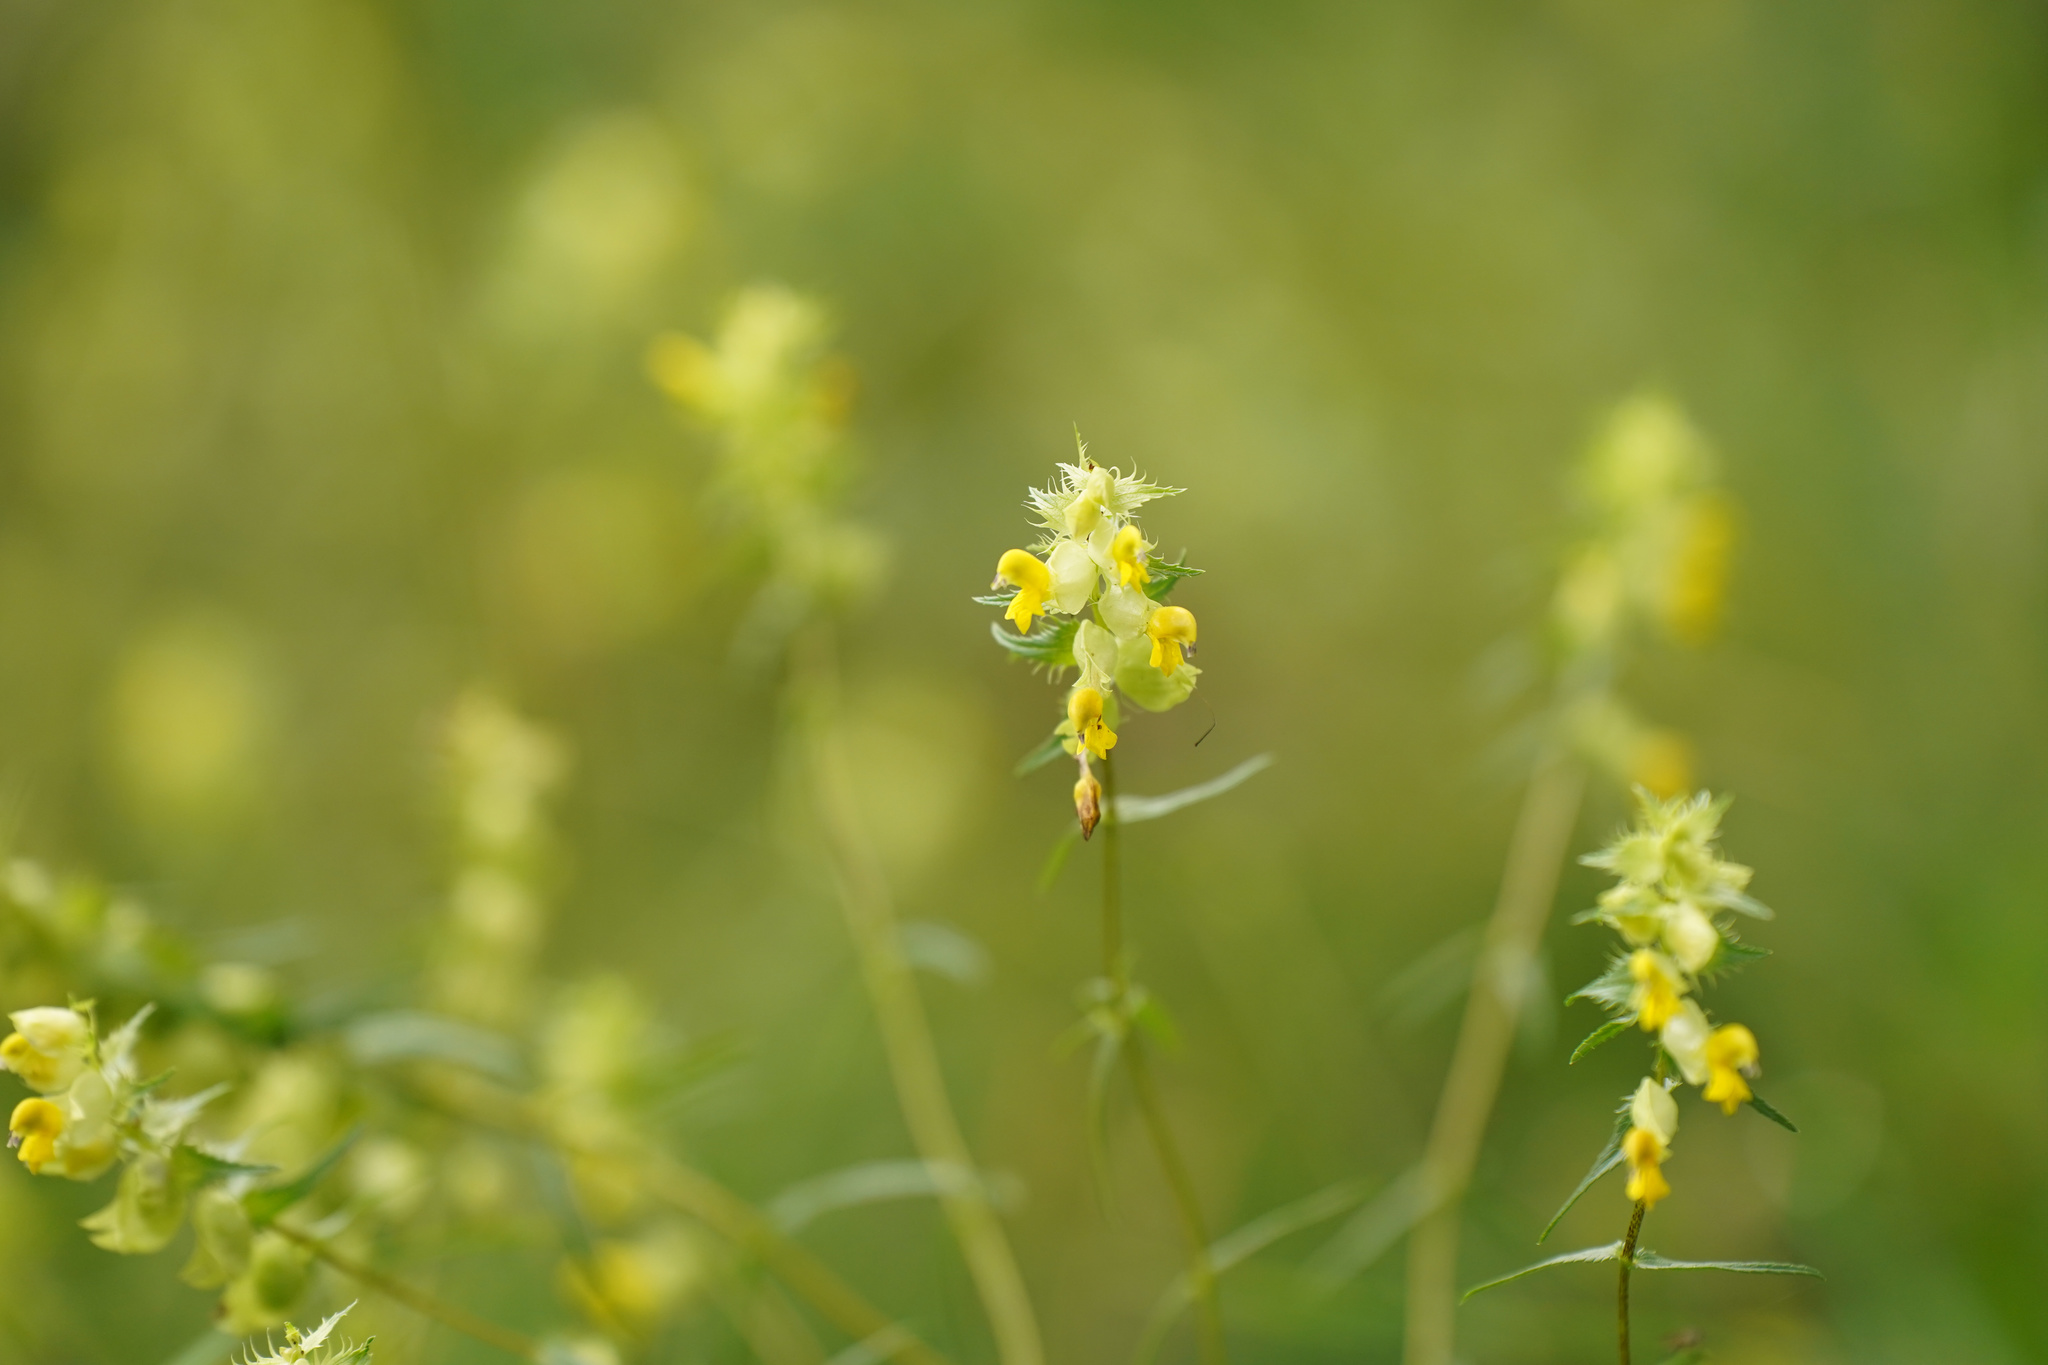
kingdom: Plantae
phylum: Tracheophyta
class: Magnoliopsida
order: Lamiales
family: Orobanchaceae
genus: Rhinanthus
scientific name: Rhinanthus glacialis
